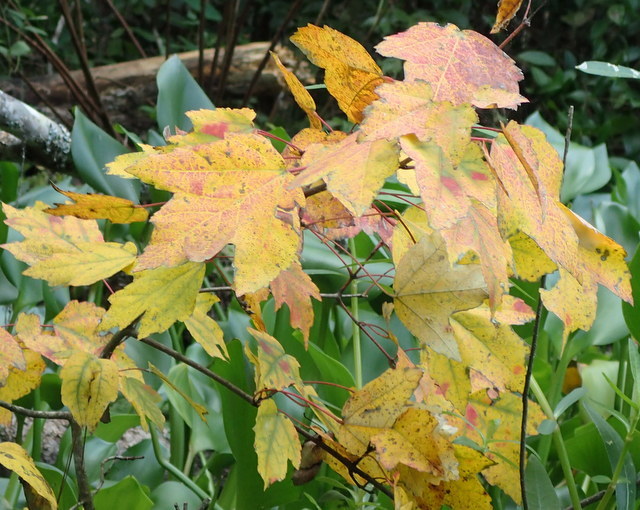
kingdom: Plantae
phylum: Tracheophyta
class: Magnoliopsida
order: Sapindales
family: Sapindaceae
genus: Acer
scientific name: Acer rubrum
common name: Red maple
